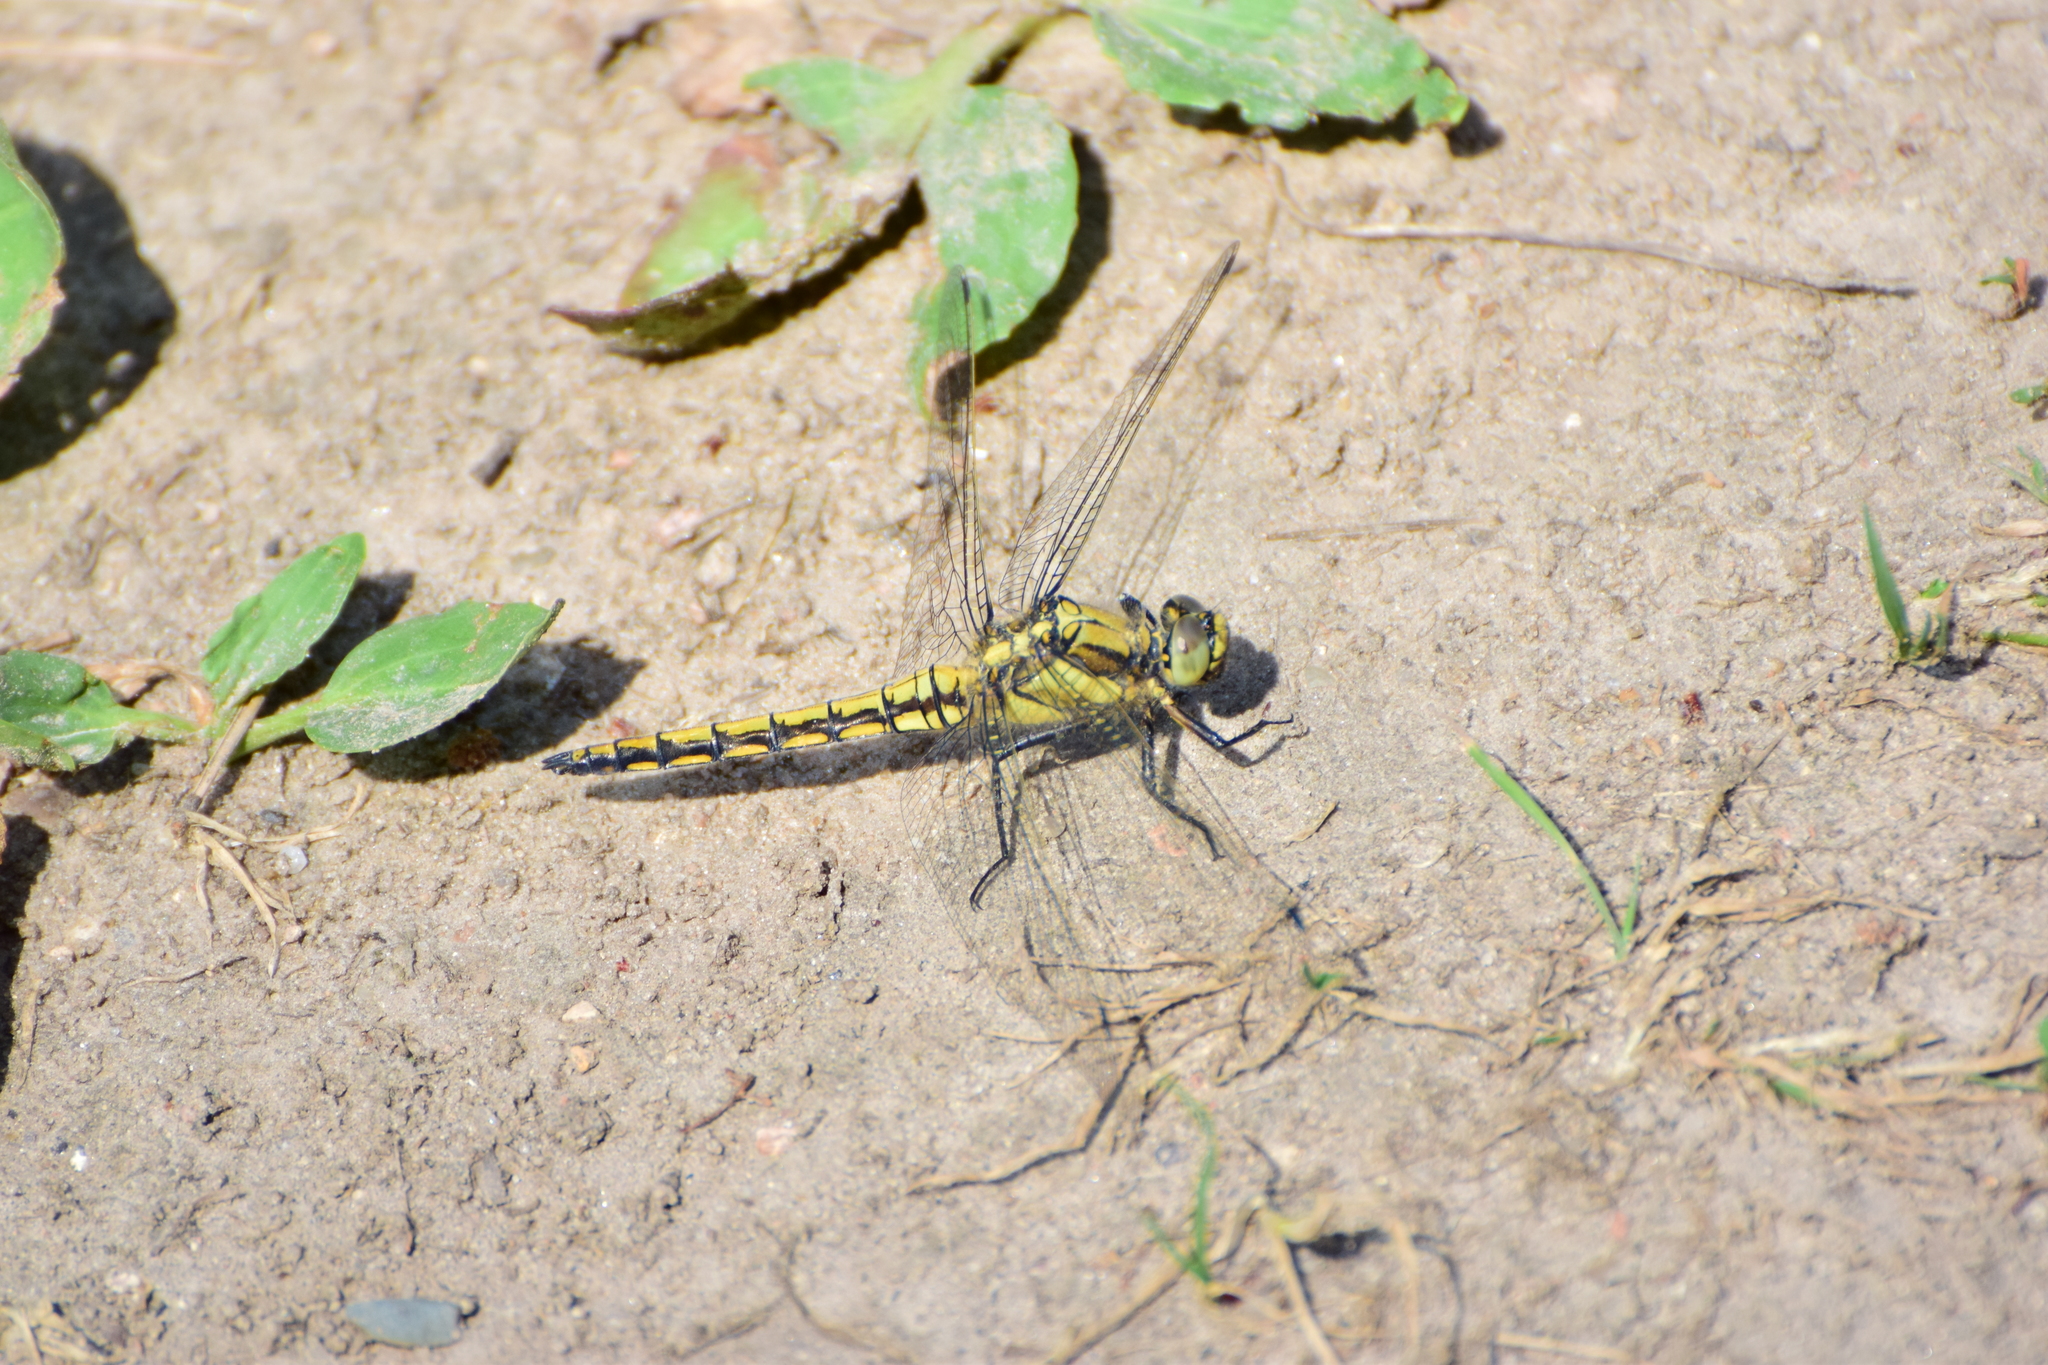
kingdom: Animalia
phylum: Arthropoda
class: Insecta
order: Odonata
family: Libellulidae
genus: Orthetrum
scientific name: Orthetrum cancellatum
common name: Black-tailed skimmer
